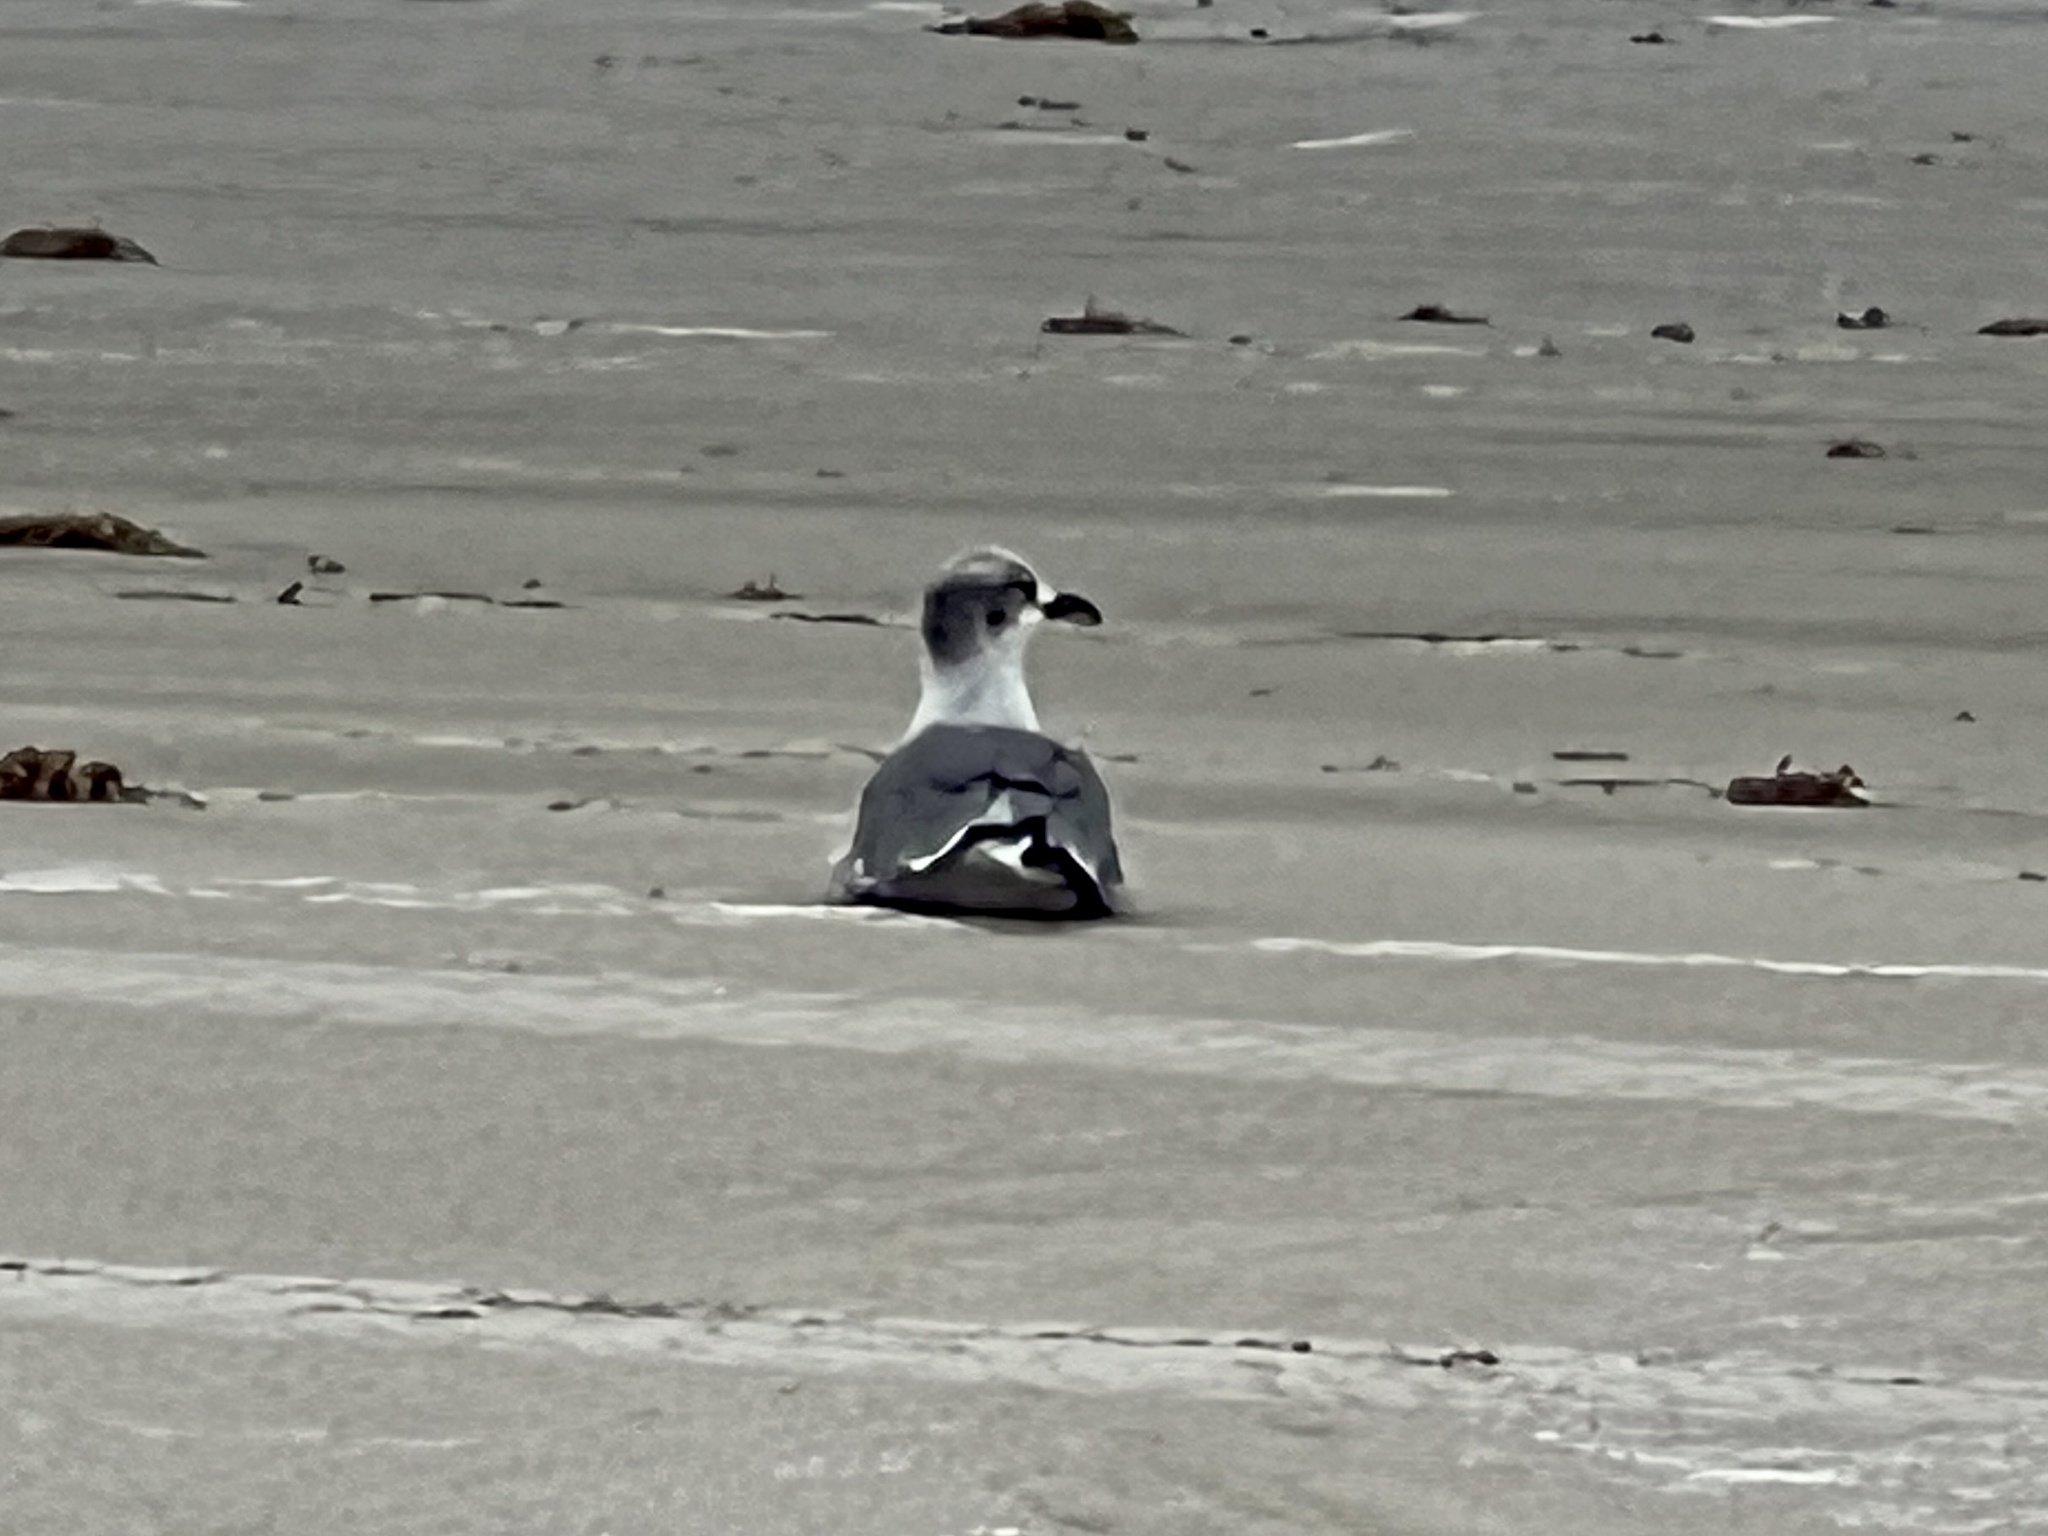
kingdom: Animalia
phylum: Chordata
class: Aves
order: Charadriiformes
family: Laridae
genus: Leucophaeus
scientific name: Leucophaeus atricilla
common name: Laughing gull
